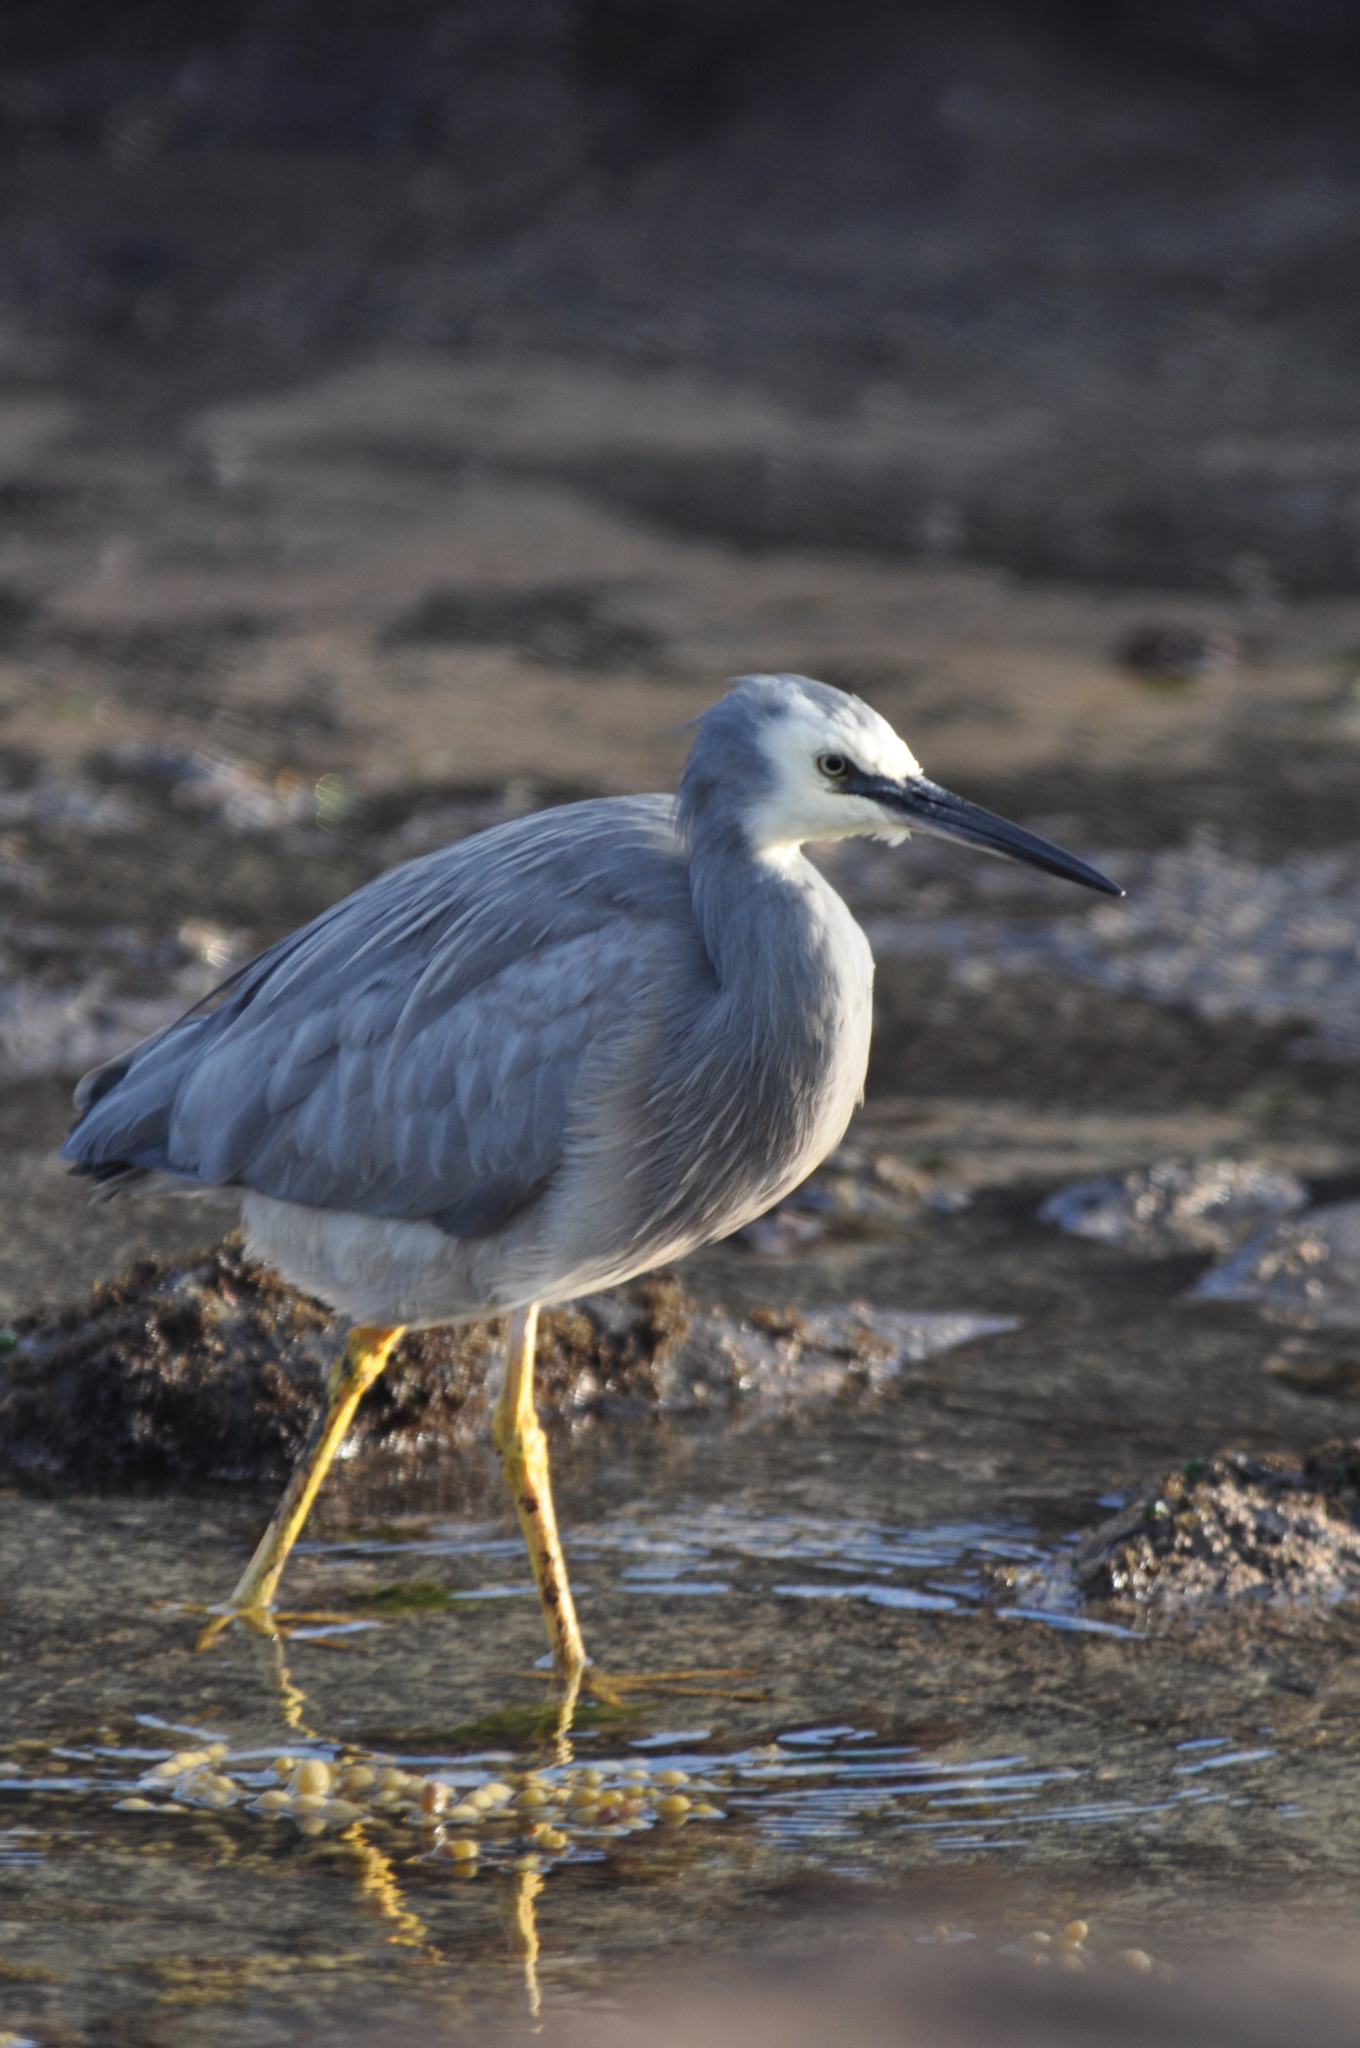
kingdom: Animalia
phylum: Chordata
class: Aves
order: Pelecaniformes
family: Ardeidae
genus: Egretta
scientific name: Egretta novaehollandiae
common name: White-faced heron
